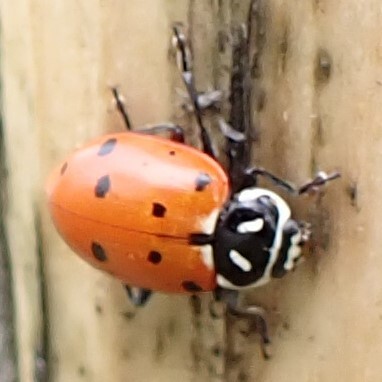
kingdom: Animalia
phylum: Arthropoda
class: Insecta
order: Coleoptera
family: Coccinellidae
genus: Hippodamia
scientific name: Hippodamia convergens
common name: Convergent lady beetle
